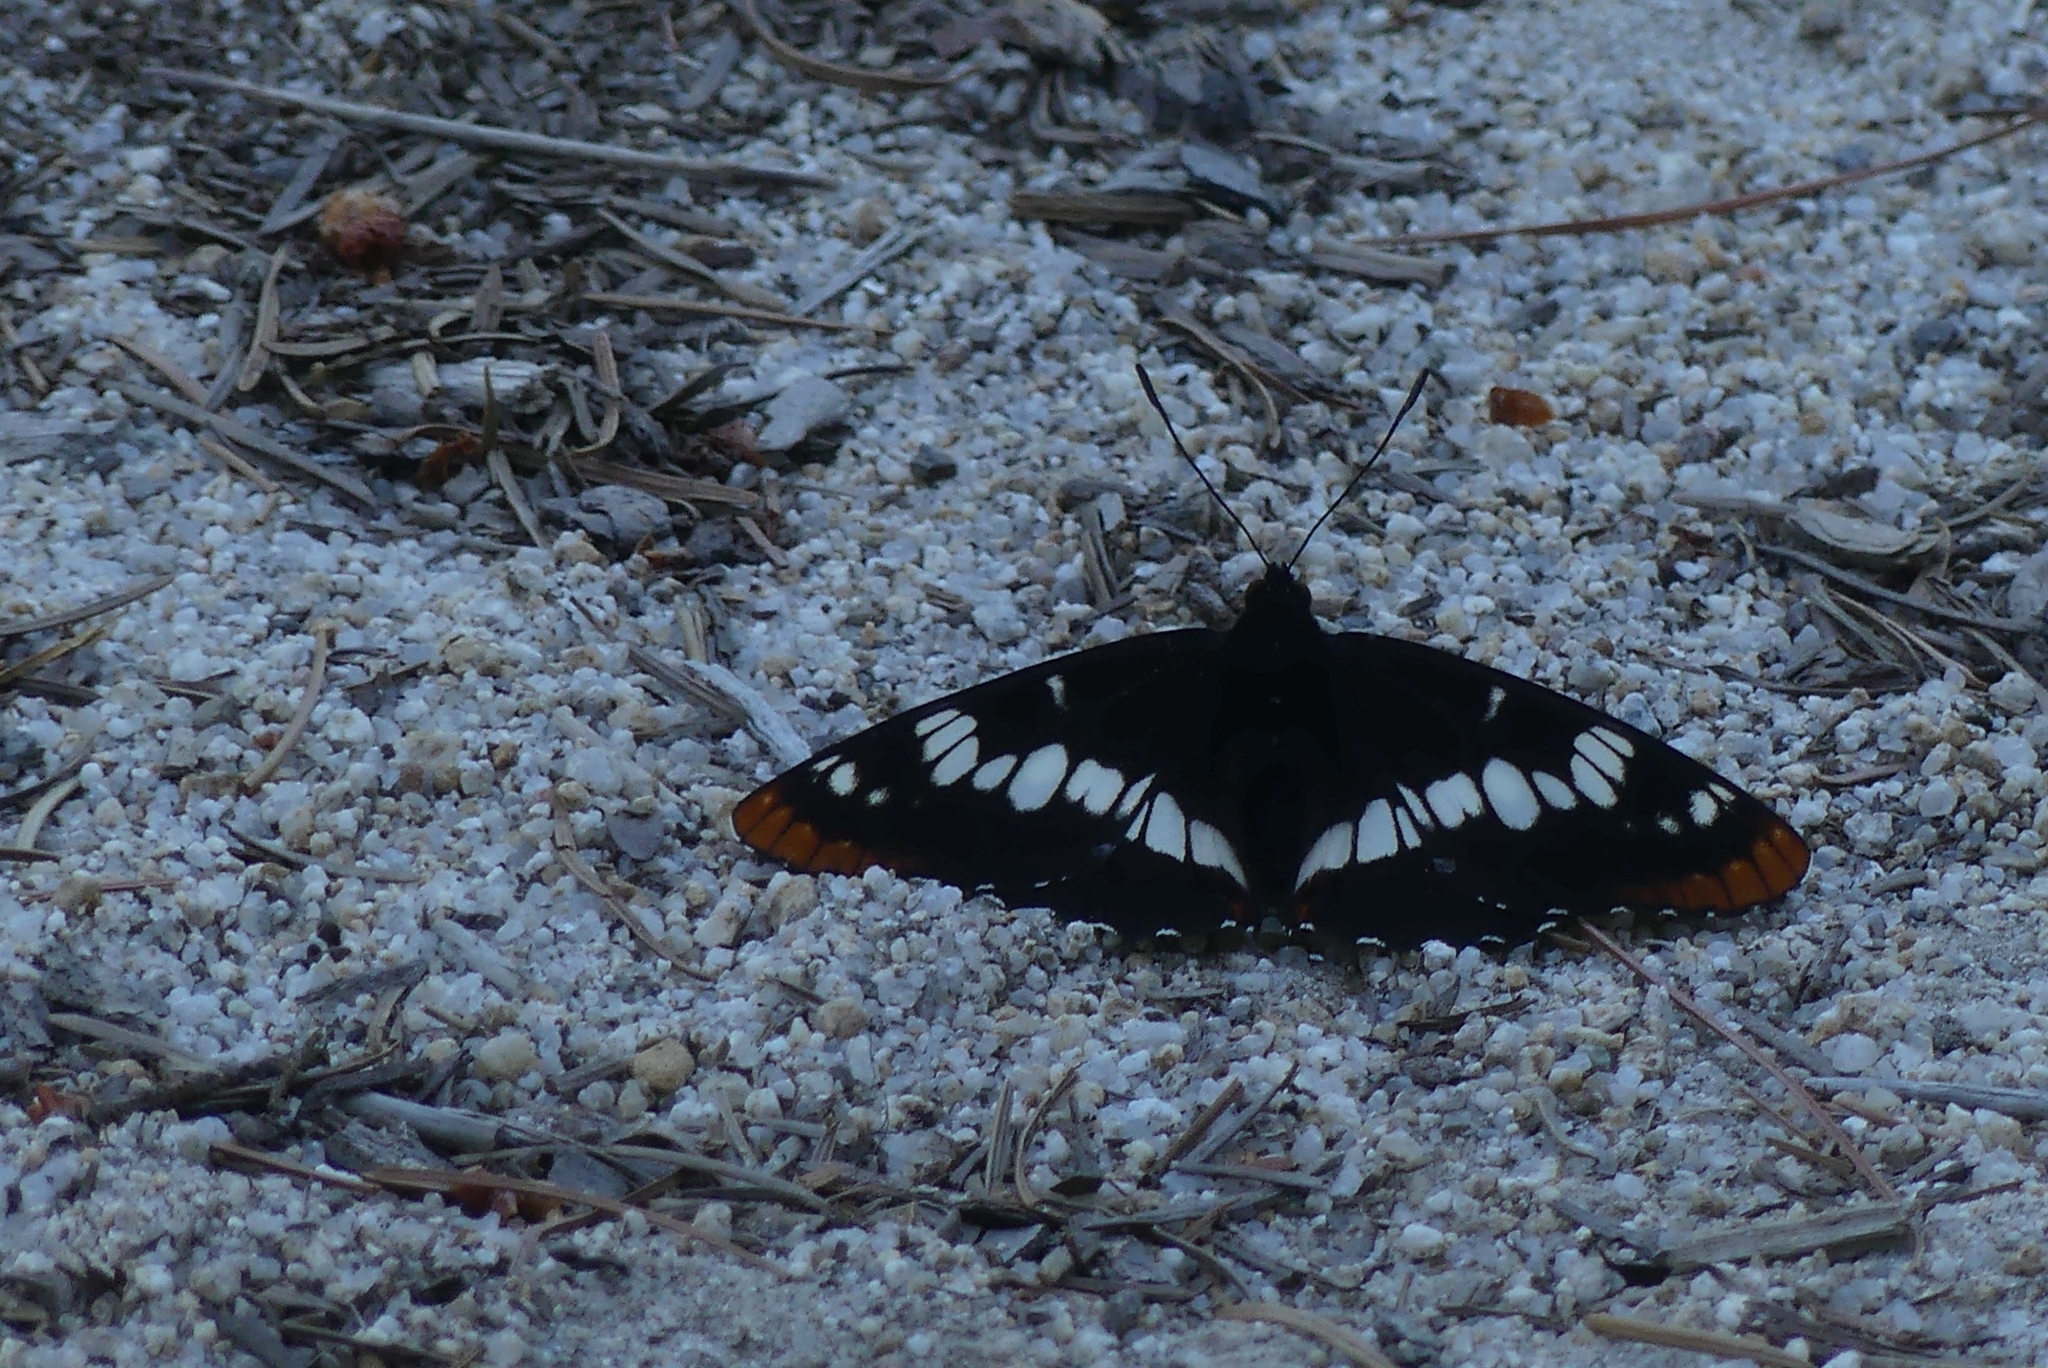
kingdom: Animalia
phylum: Arthropoda
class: Insecta
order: Lepidoptera
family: Nymphalidae
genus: Limenitis
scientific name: Limenitis lorquini
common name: Lorquin's admiral
